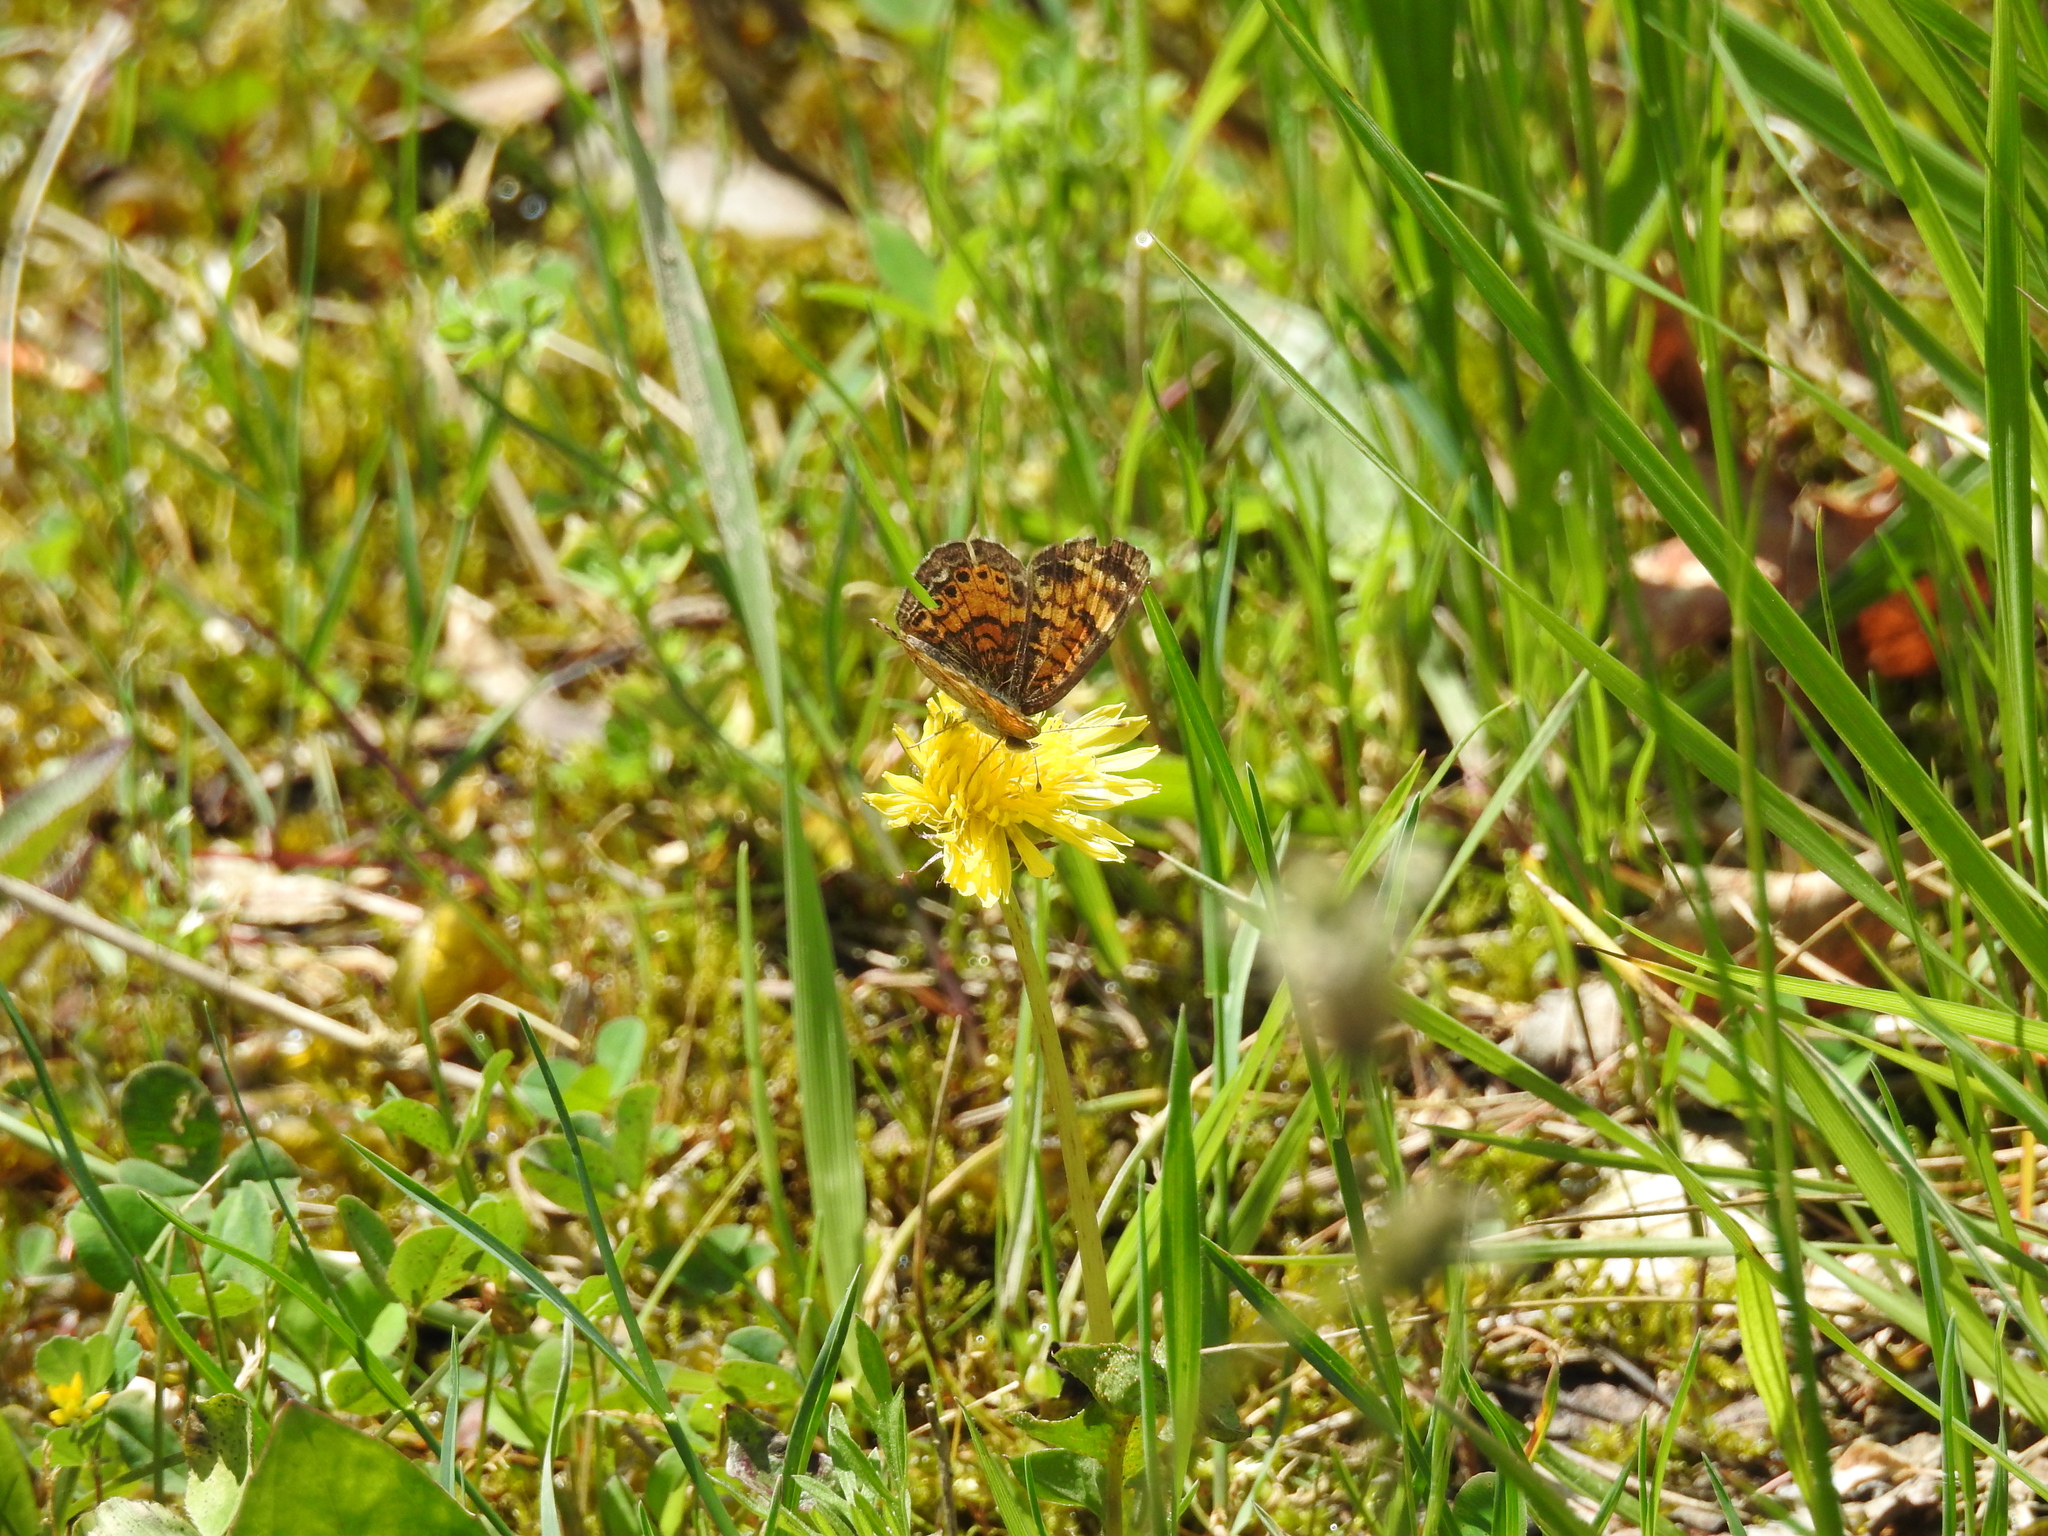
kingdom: Animalia
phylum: Arthropoda
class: Insecta
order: Lepidoptera
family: Nymphalidae
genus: Phyciodes
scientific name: Phyciodes tharos
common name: Pearl crescent
